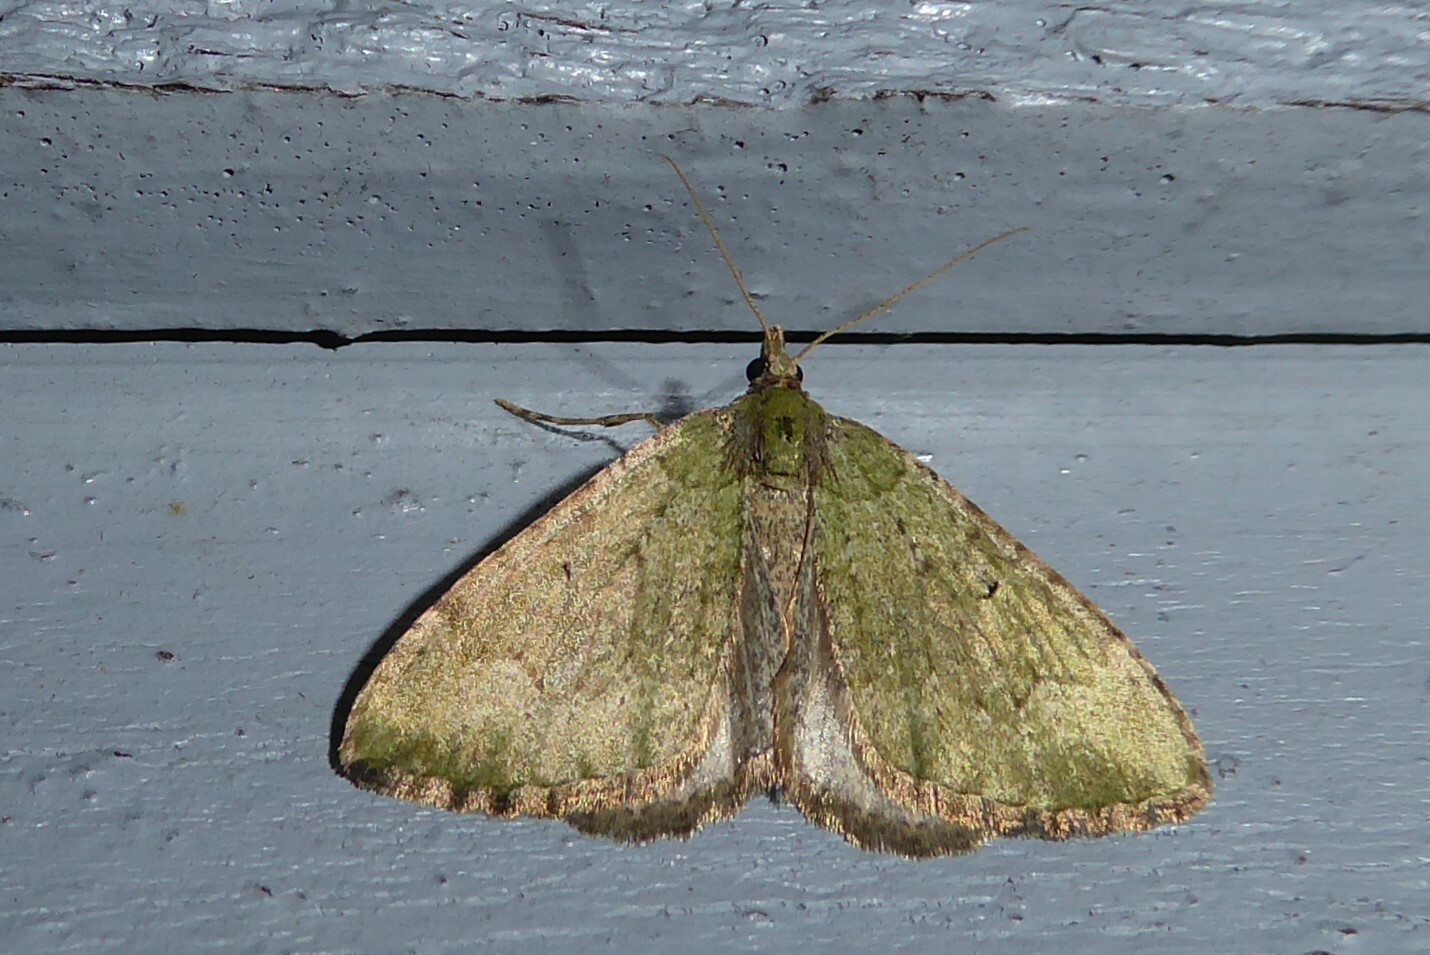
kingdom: Animalia
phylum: Arthropoda
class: Insecta
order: Lepidoptera
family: Geometridae
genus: Epyaxa
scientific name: Epyaxa rosearia
